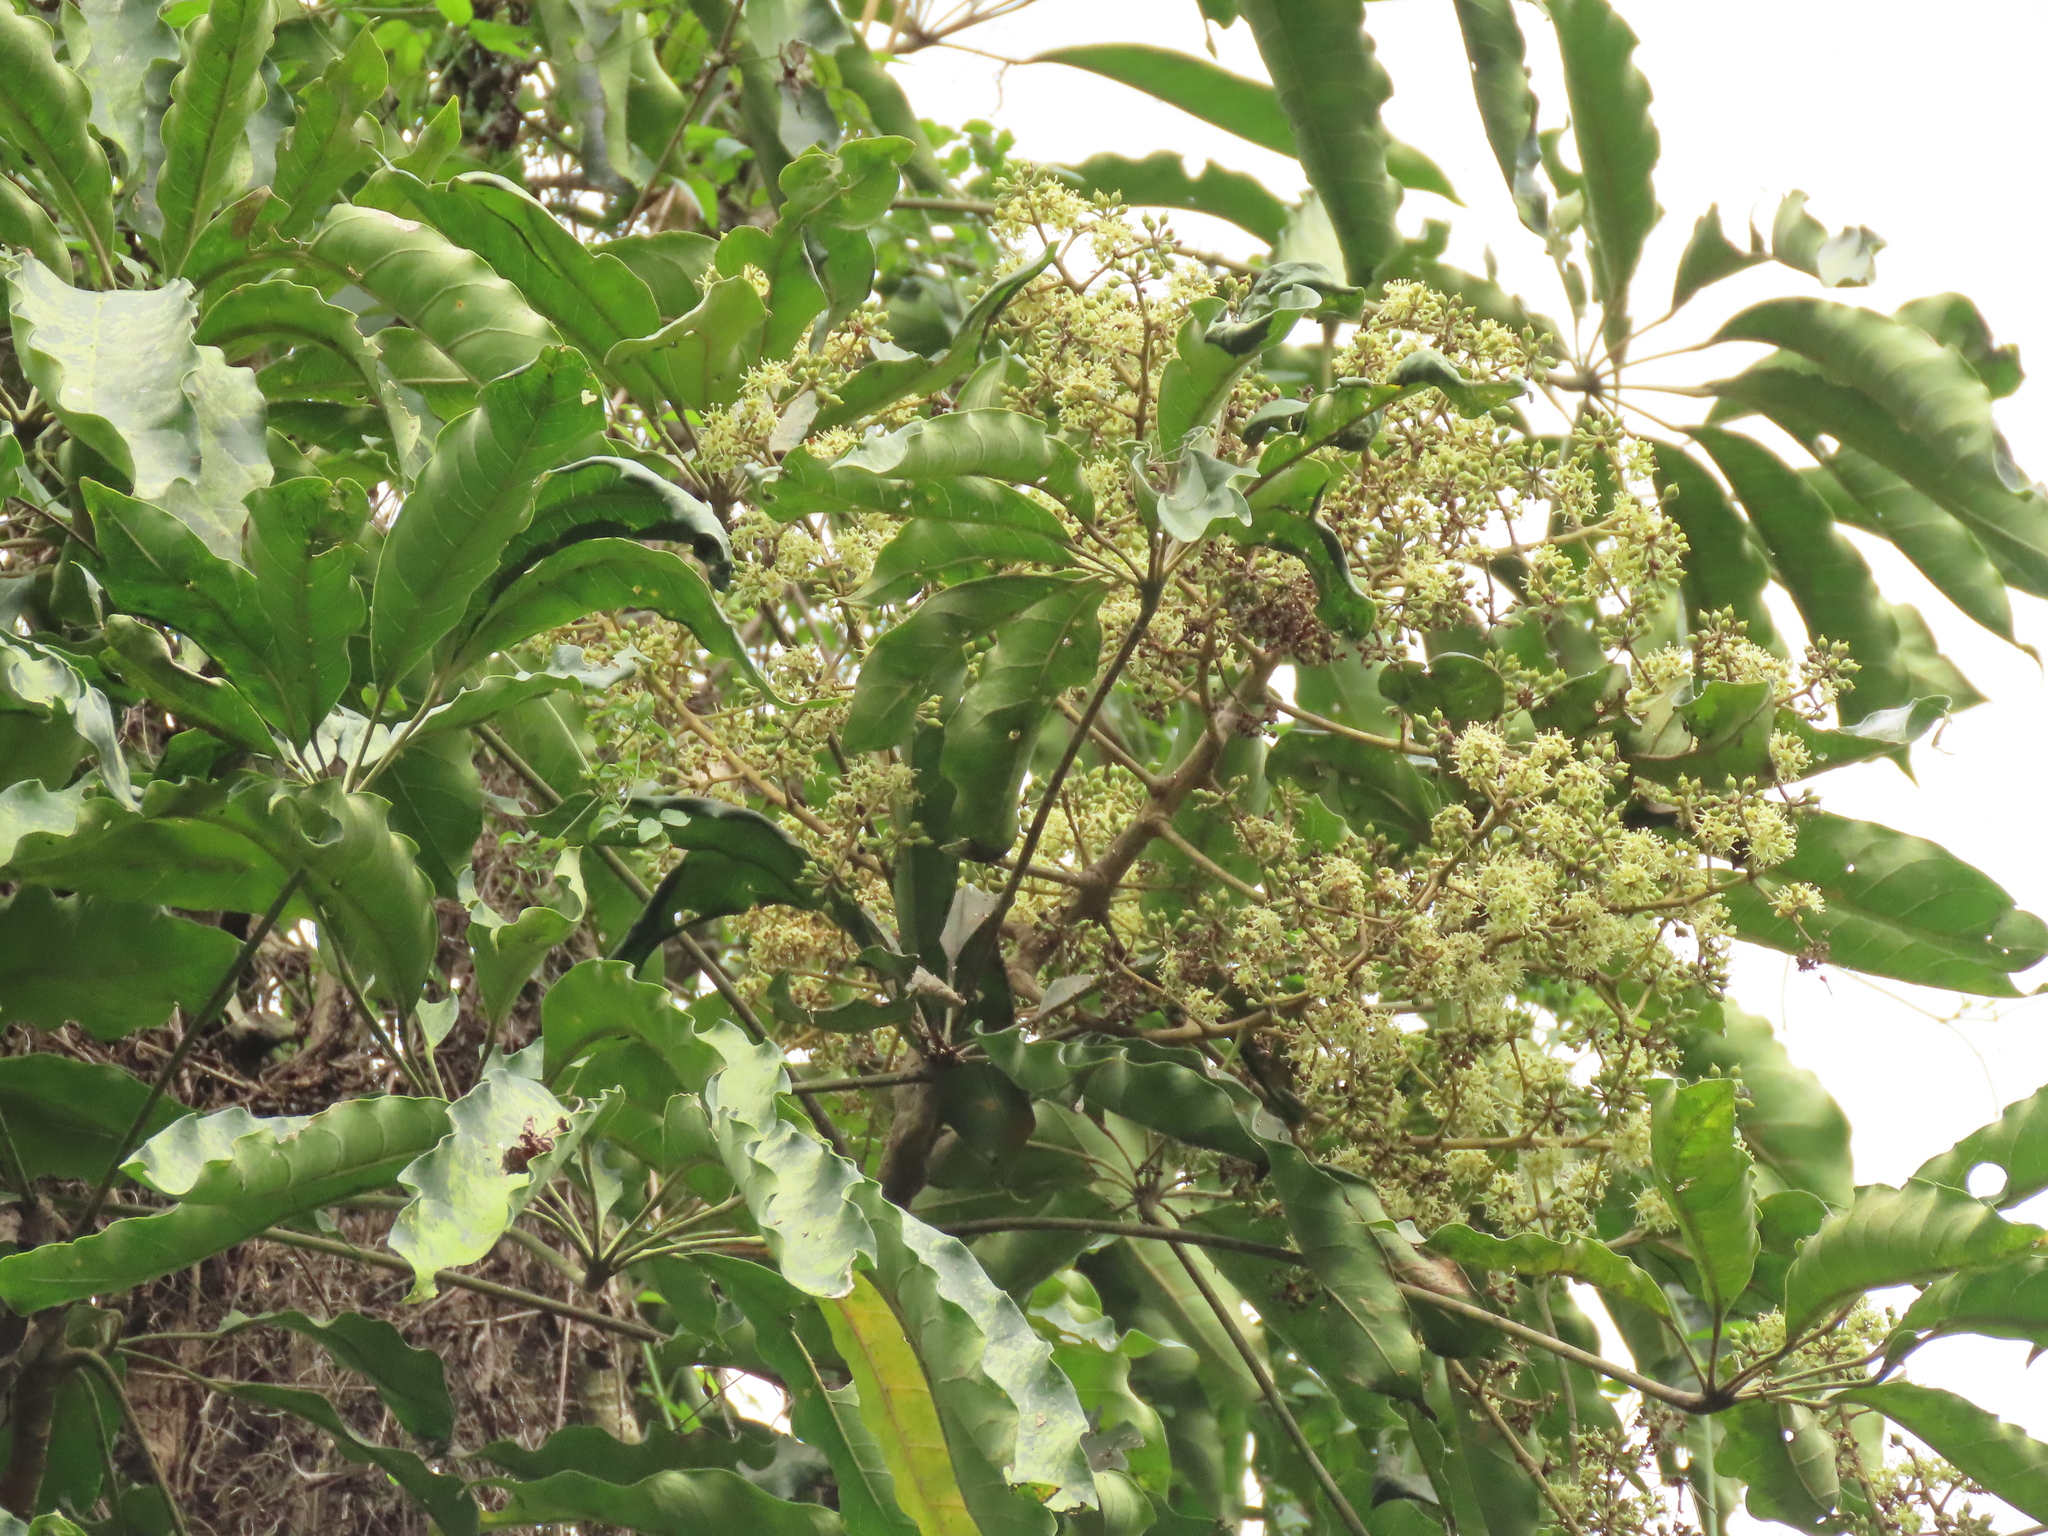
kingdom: Plantae
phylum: Tracheophyta
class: Magnoliopsida
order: Apiales
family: Araliaceae
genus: Heptapleurum
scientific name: Heptapleurum heptaphyllum
